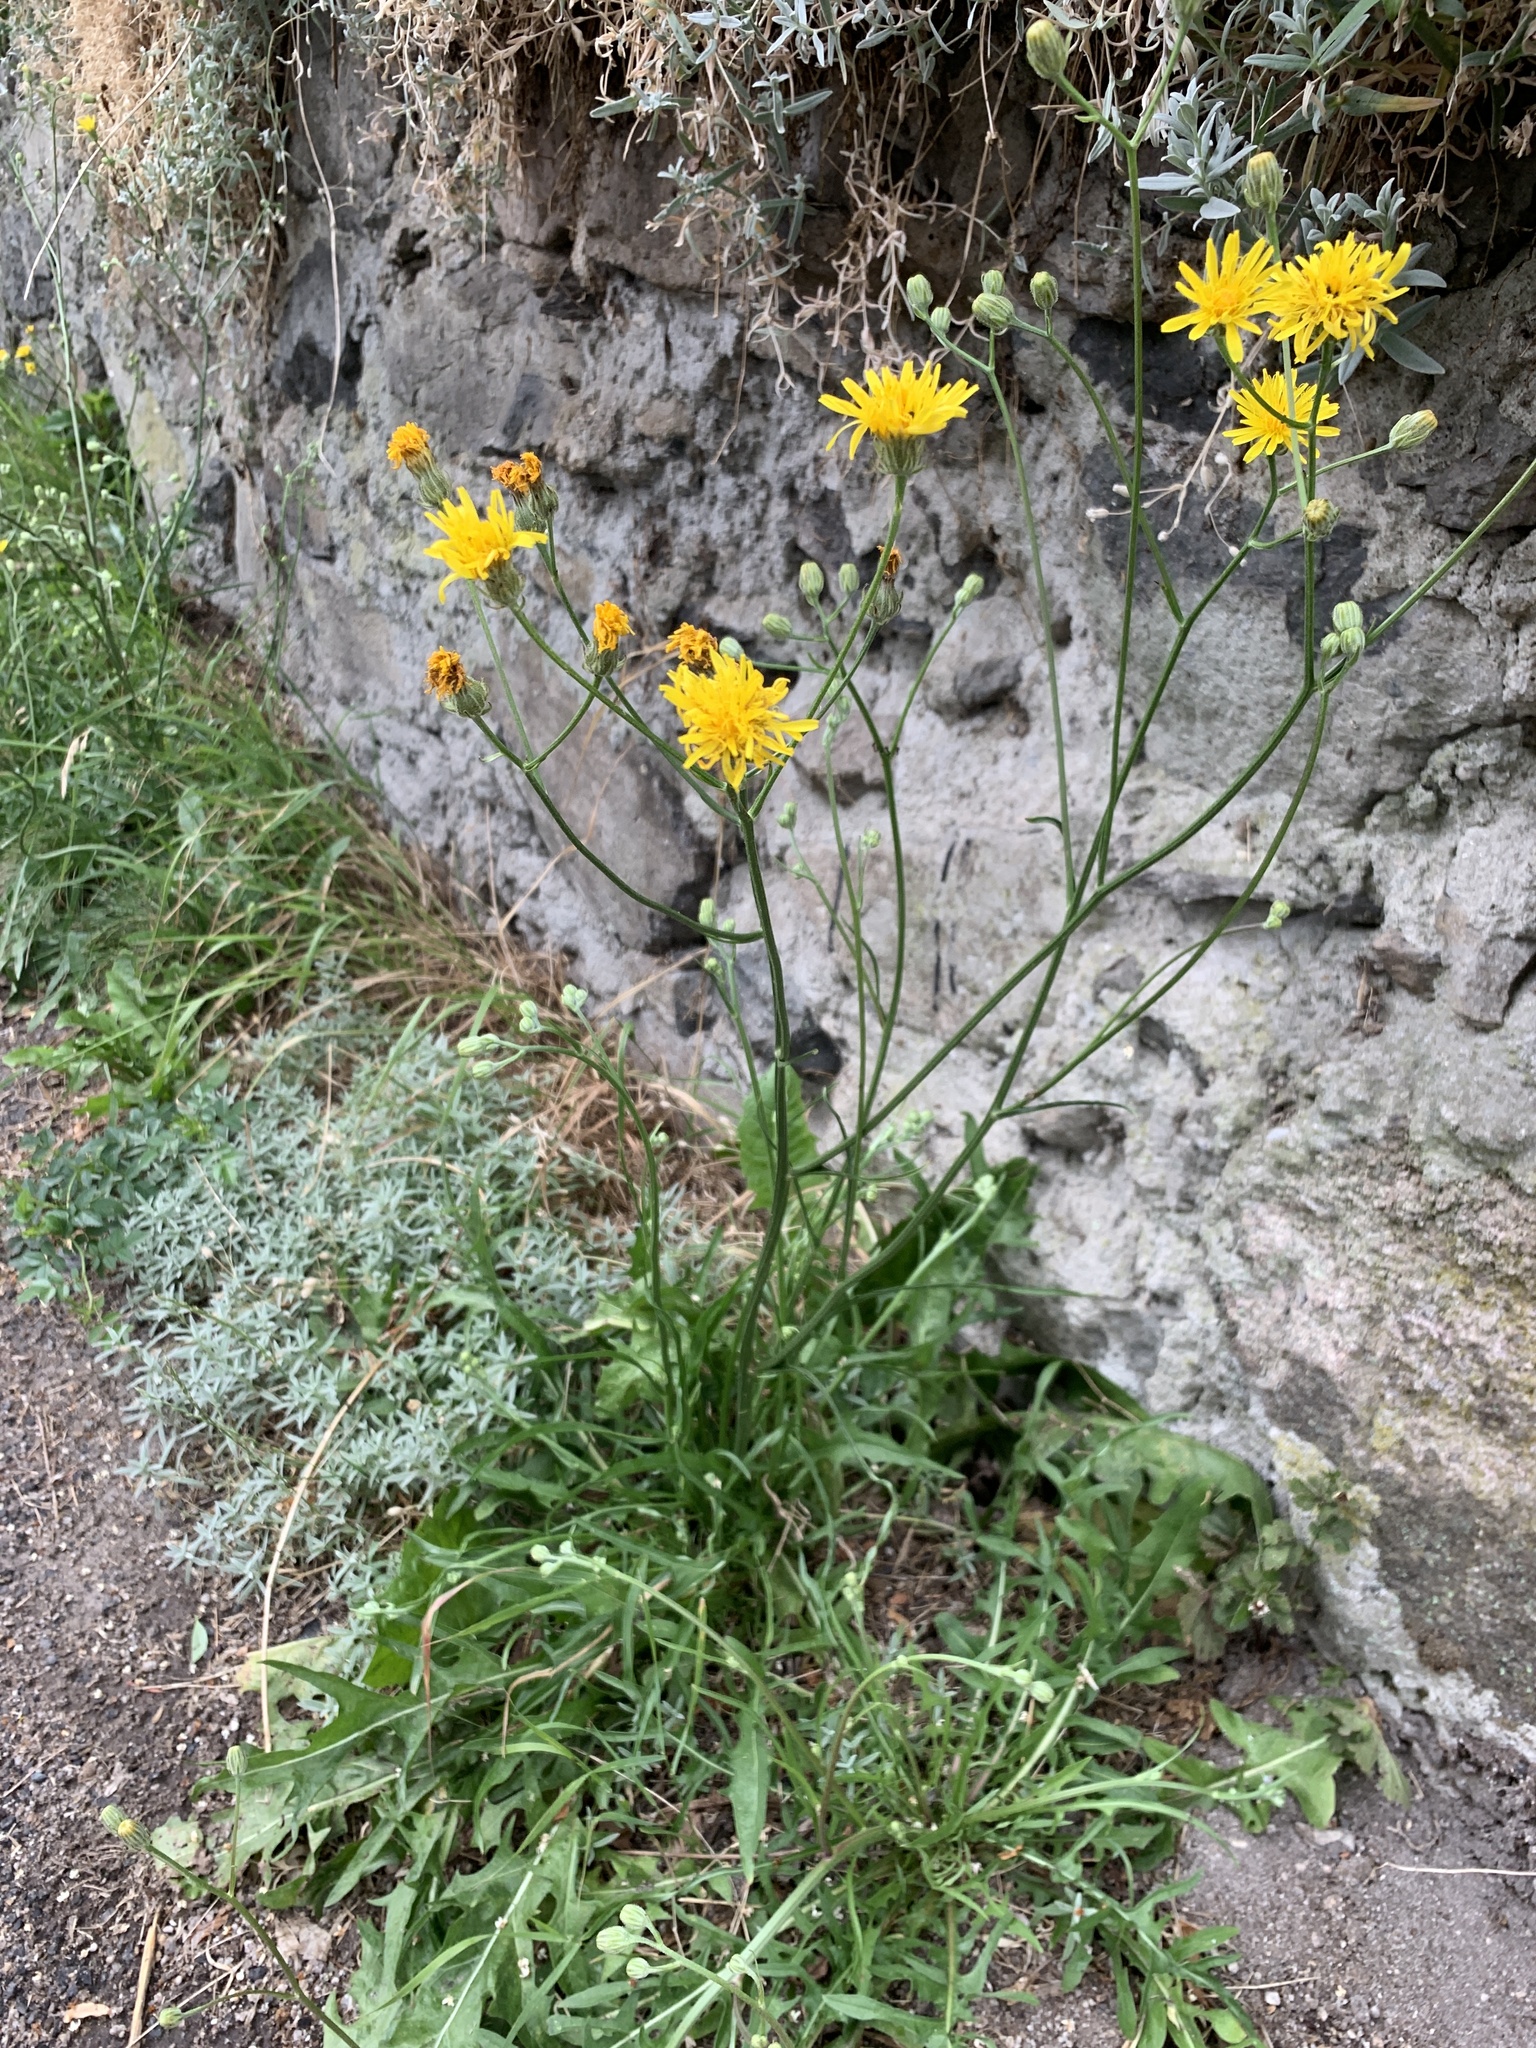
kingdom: Plantae
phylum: Tracheophyta
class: Magnoliopsida
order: Asterales
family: Asteraceae
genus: Crepis
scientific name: Crepis biennis
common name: Rough hawk's-beard
